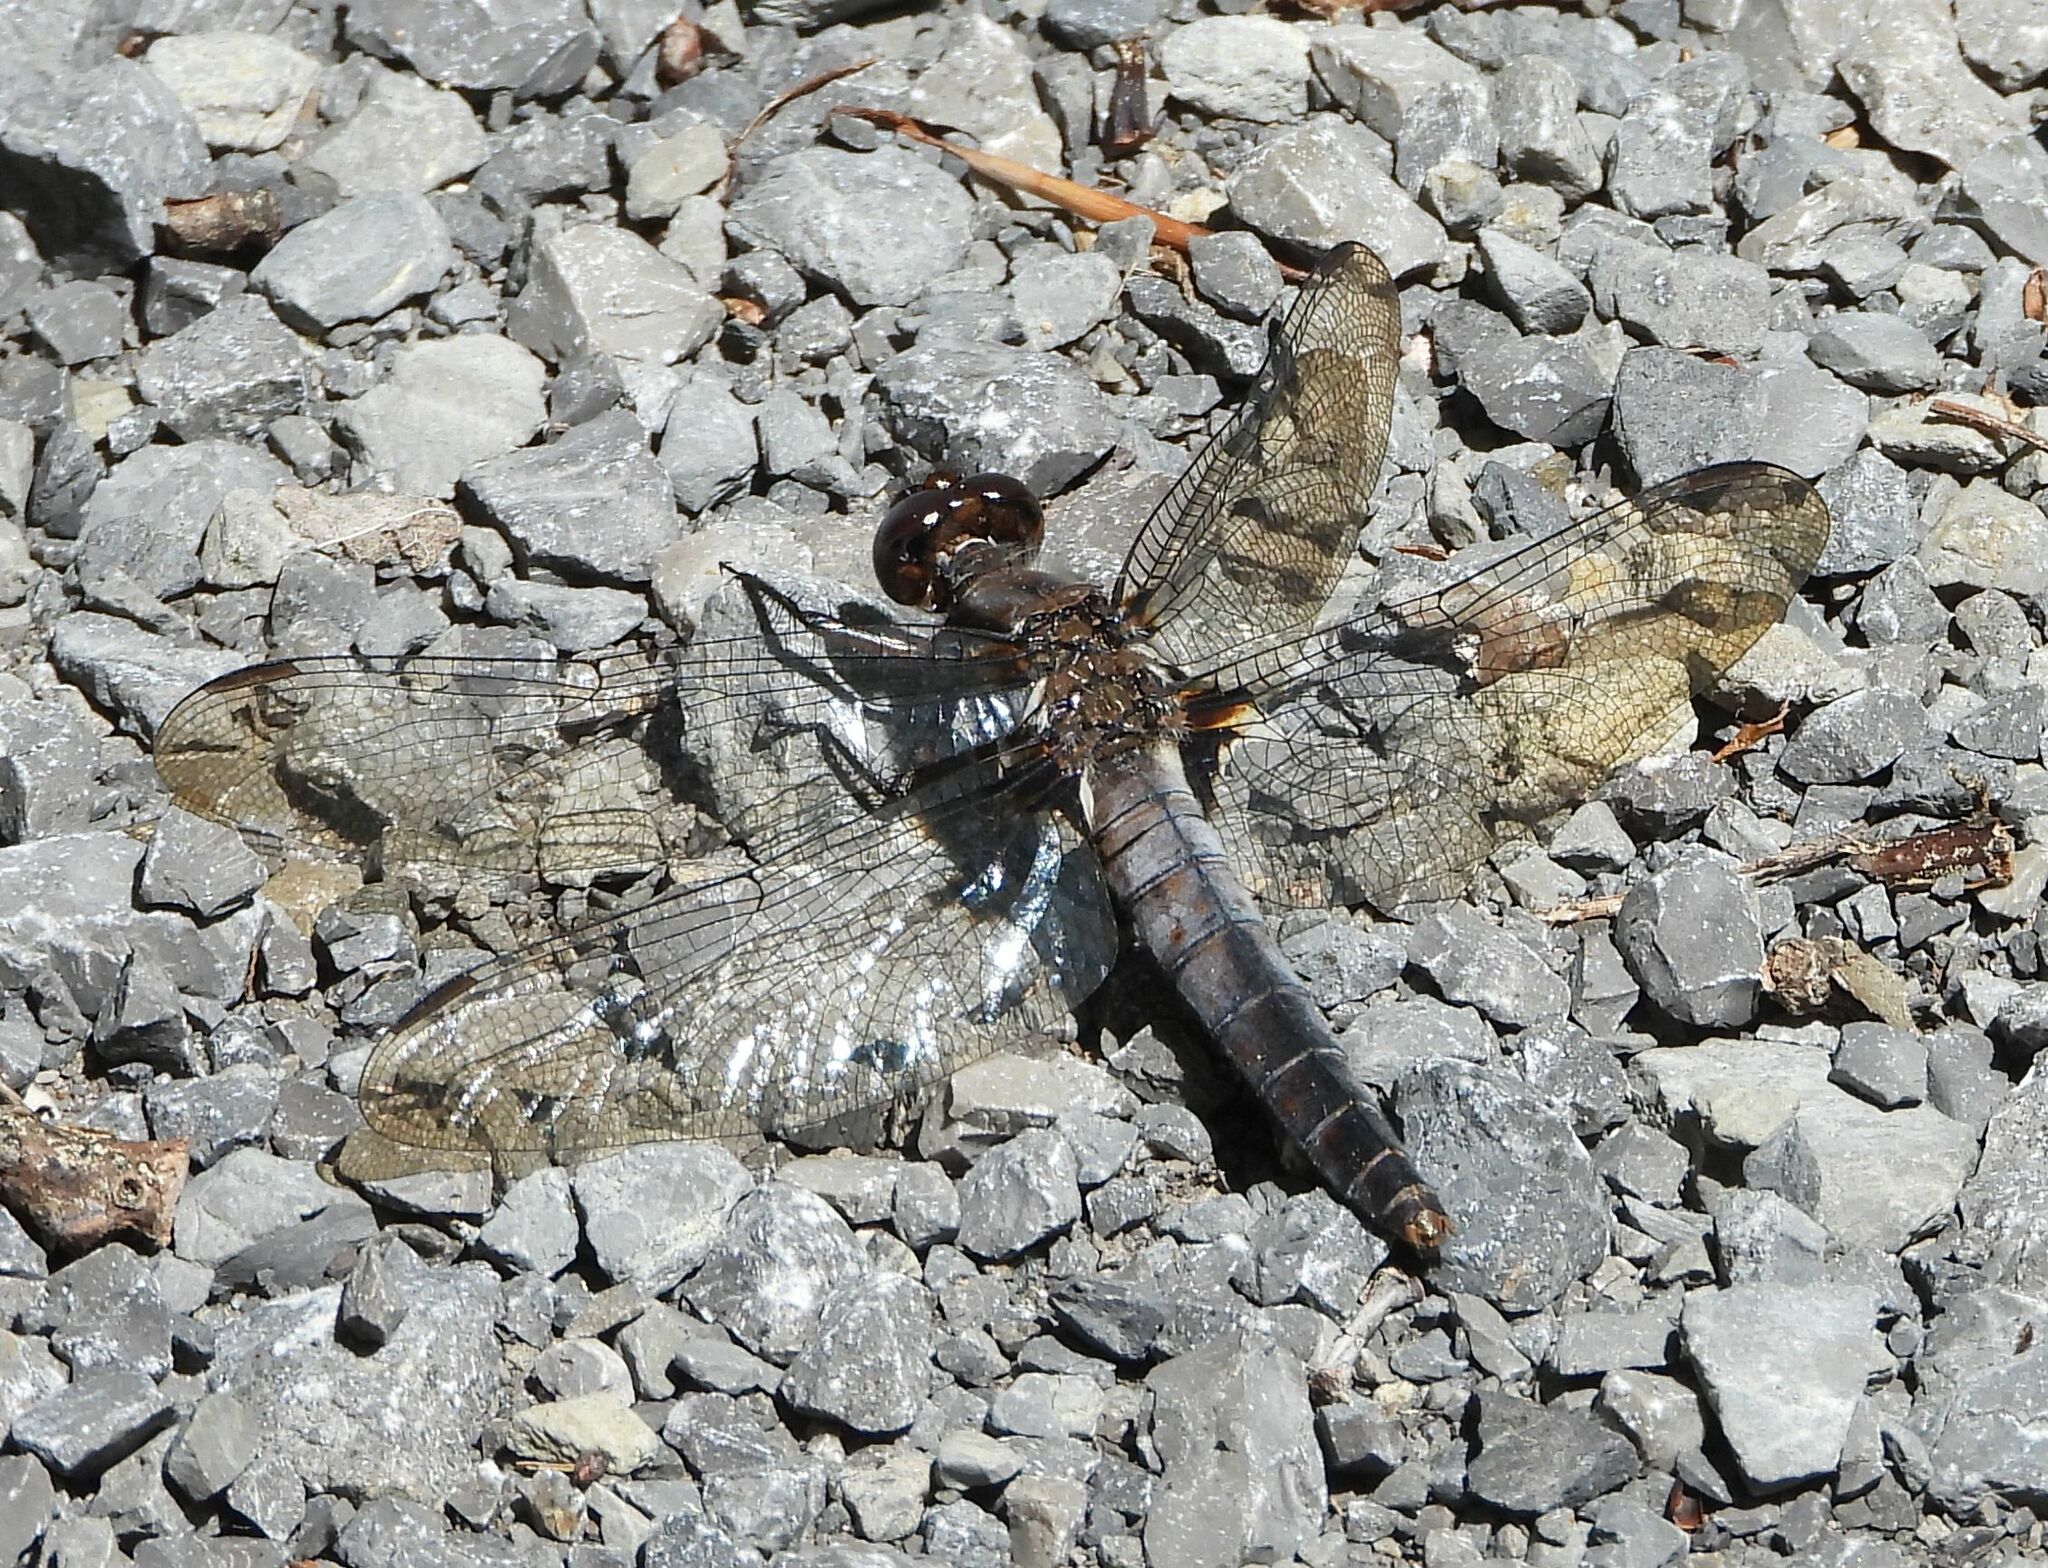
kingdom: Animalia
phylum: Arthropoda
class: Insecta
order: Odonata
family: Libellulidae
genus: Ladona
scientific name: Ladona julia
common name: Chalk-fronted corporal
